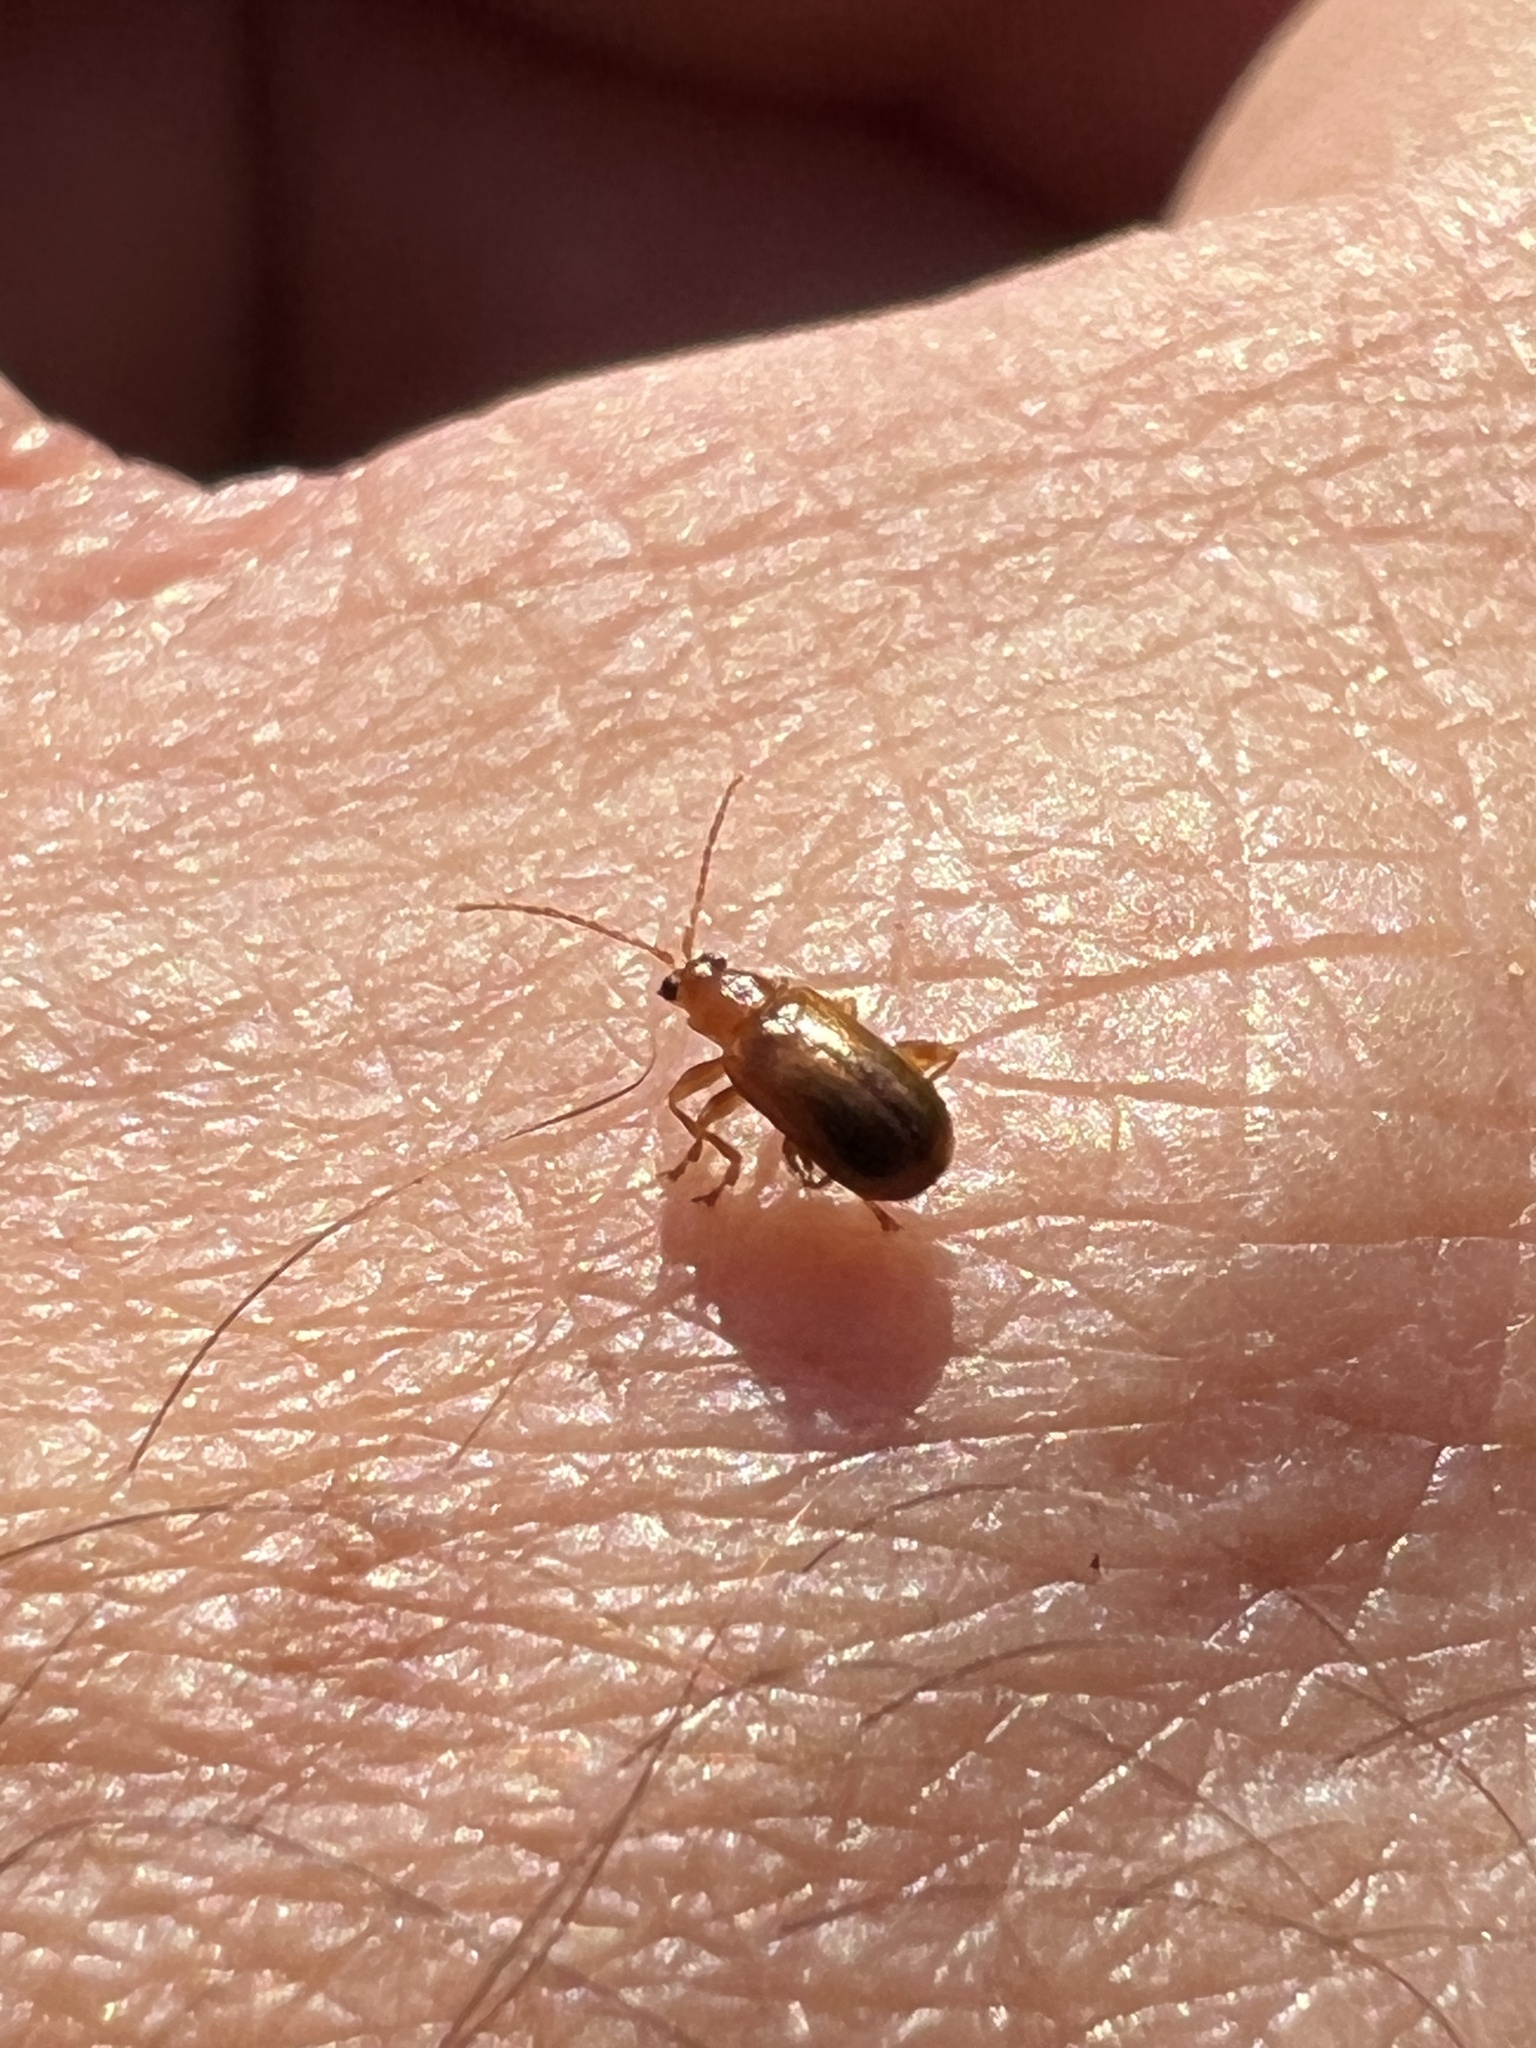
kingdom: Animalia
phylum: Arthropoda
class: Insecta
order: Coleoptera
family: Chrysomelidae
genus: Luperaltica
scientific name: Luperaltica nigripalpis
